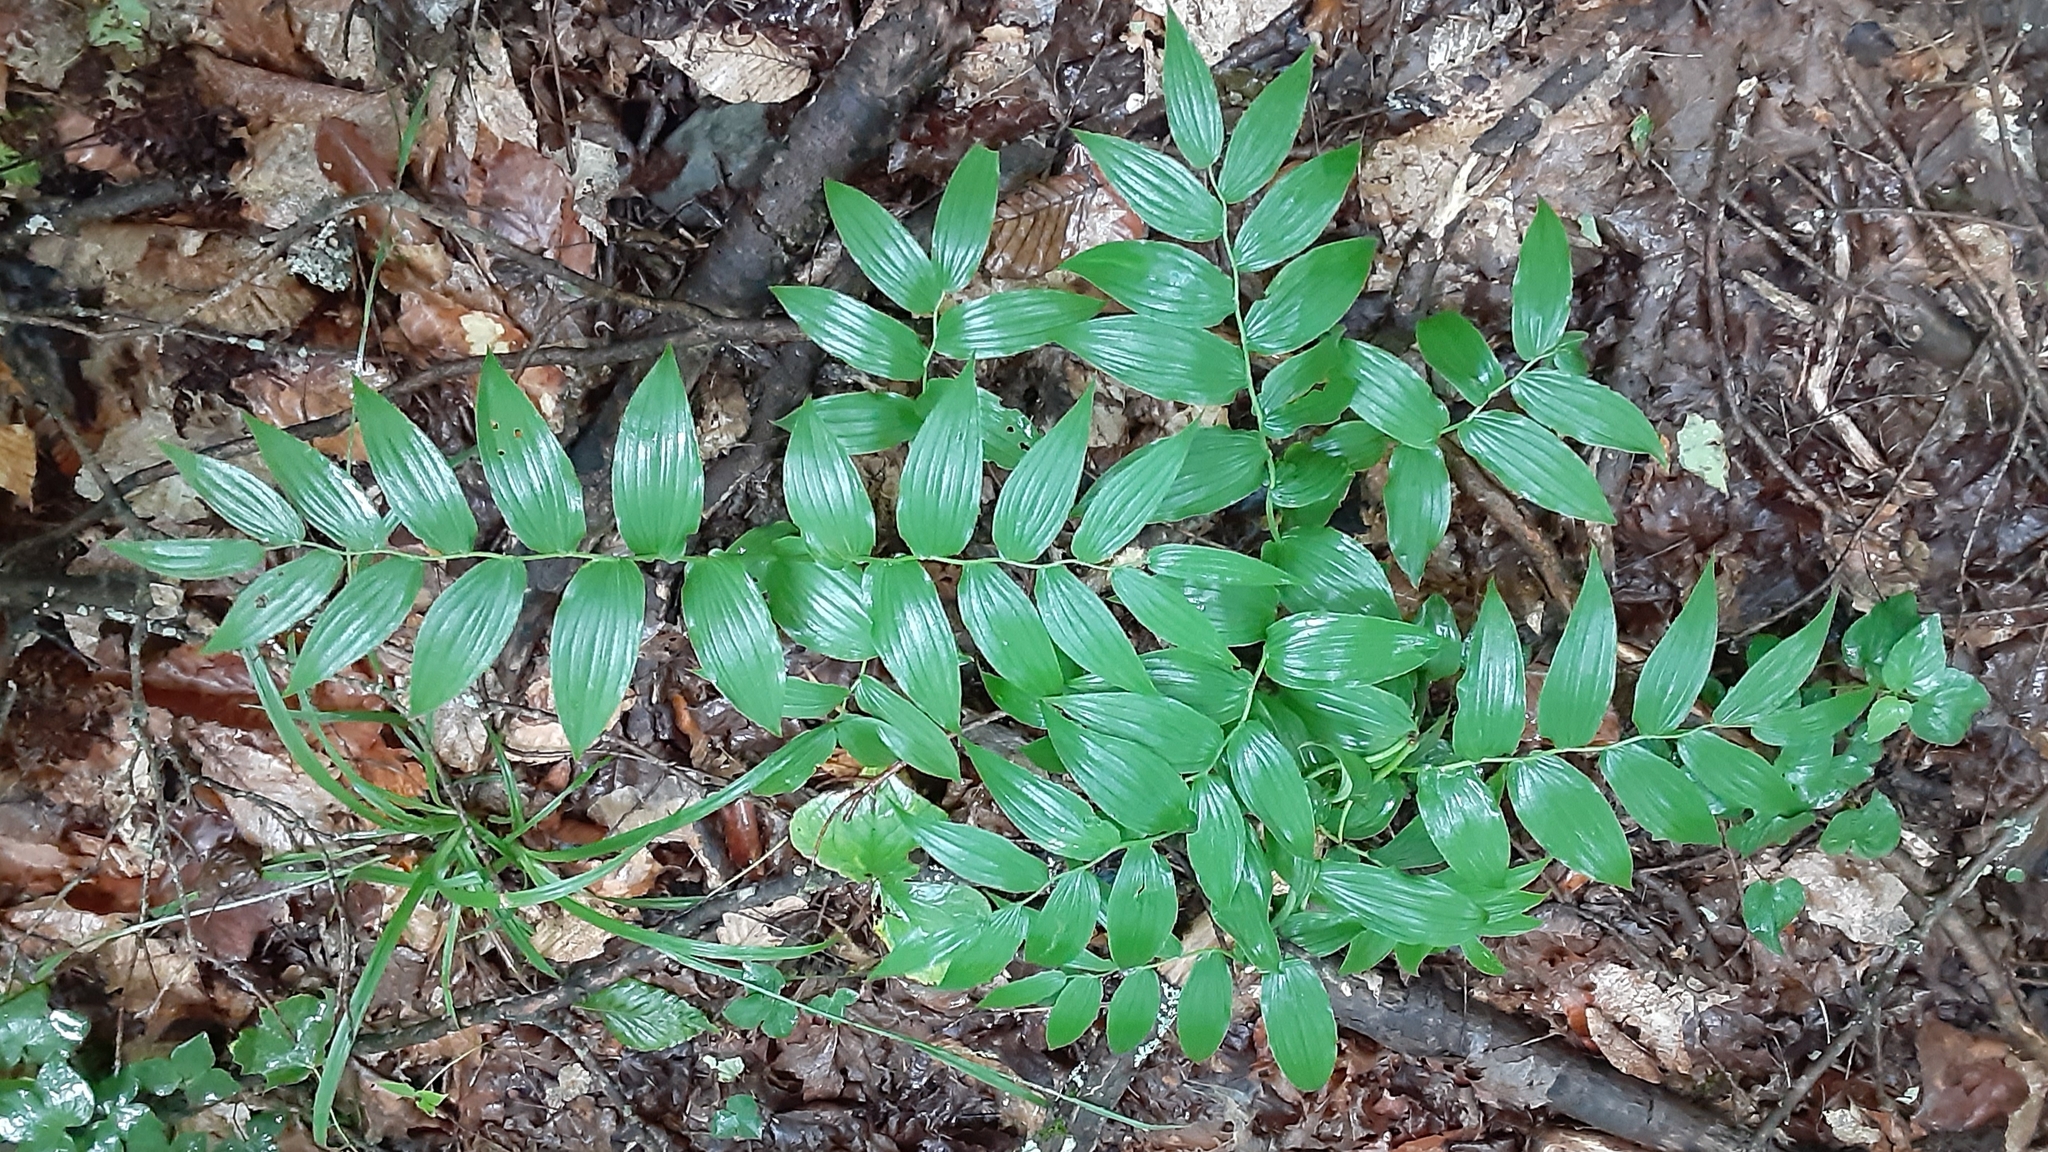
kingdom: Plantae
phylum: Tracheophyta
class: Liliopsida
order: Liliales
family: Liliaceae
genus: Streptopus
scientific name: Streptopus lanceolatus
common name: Rose mandarin
